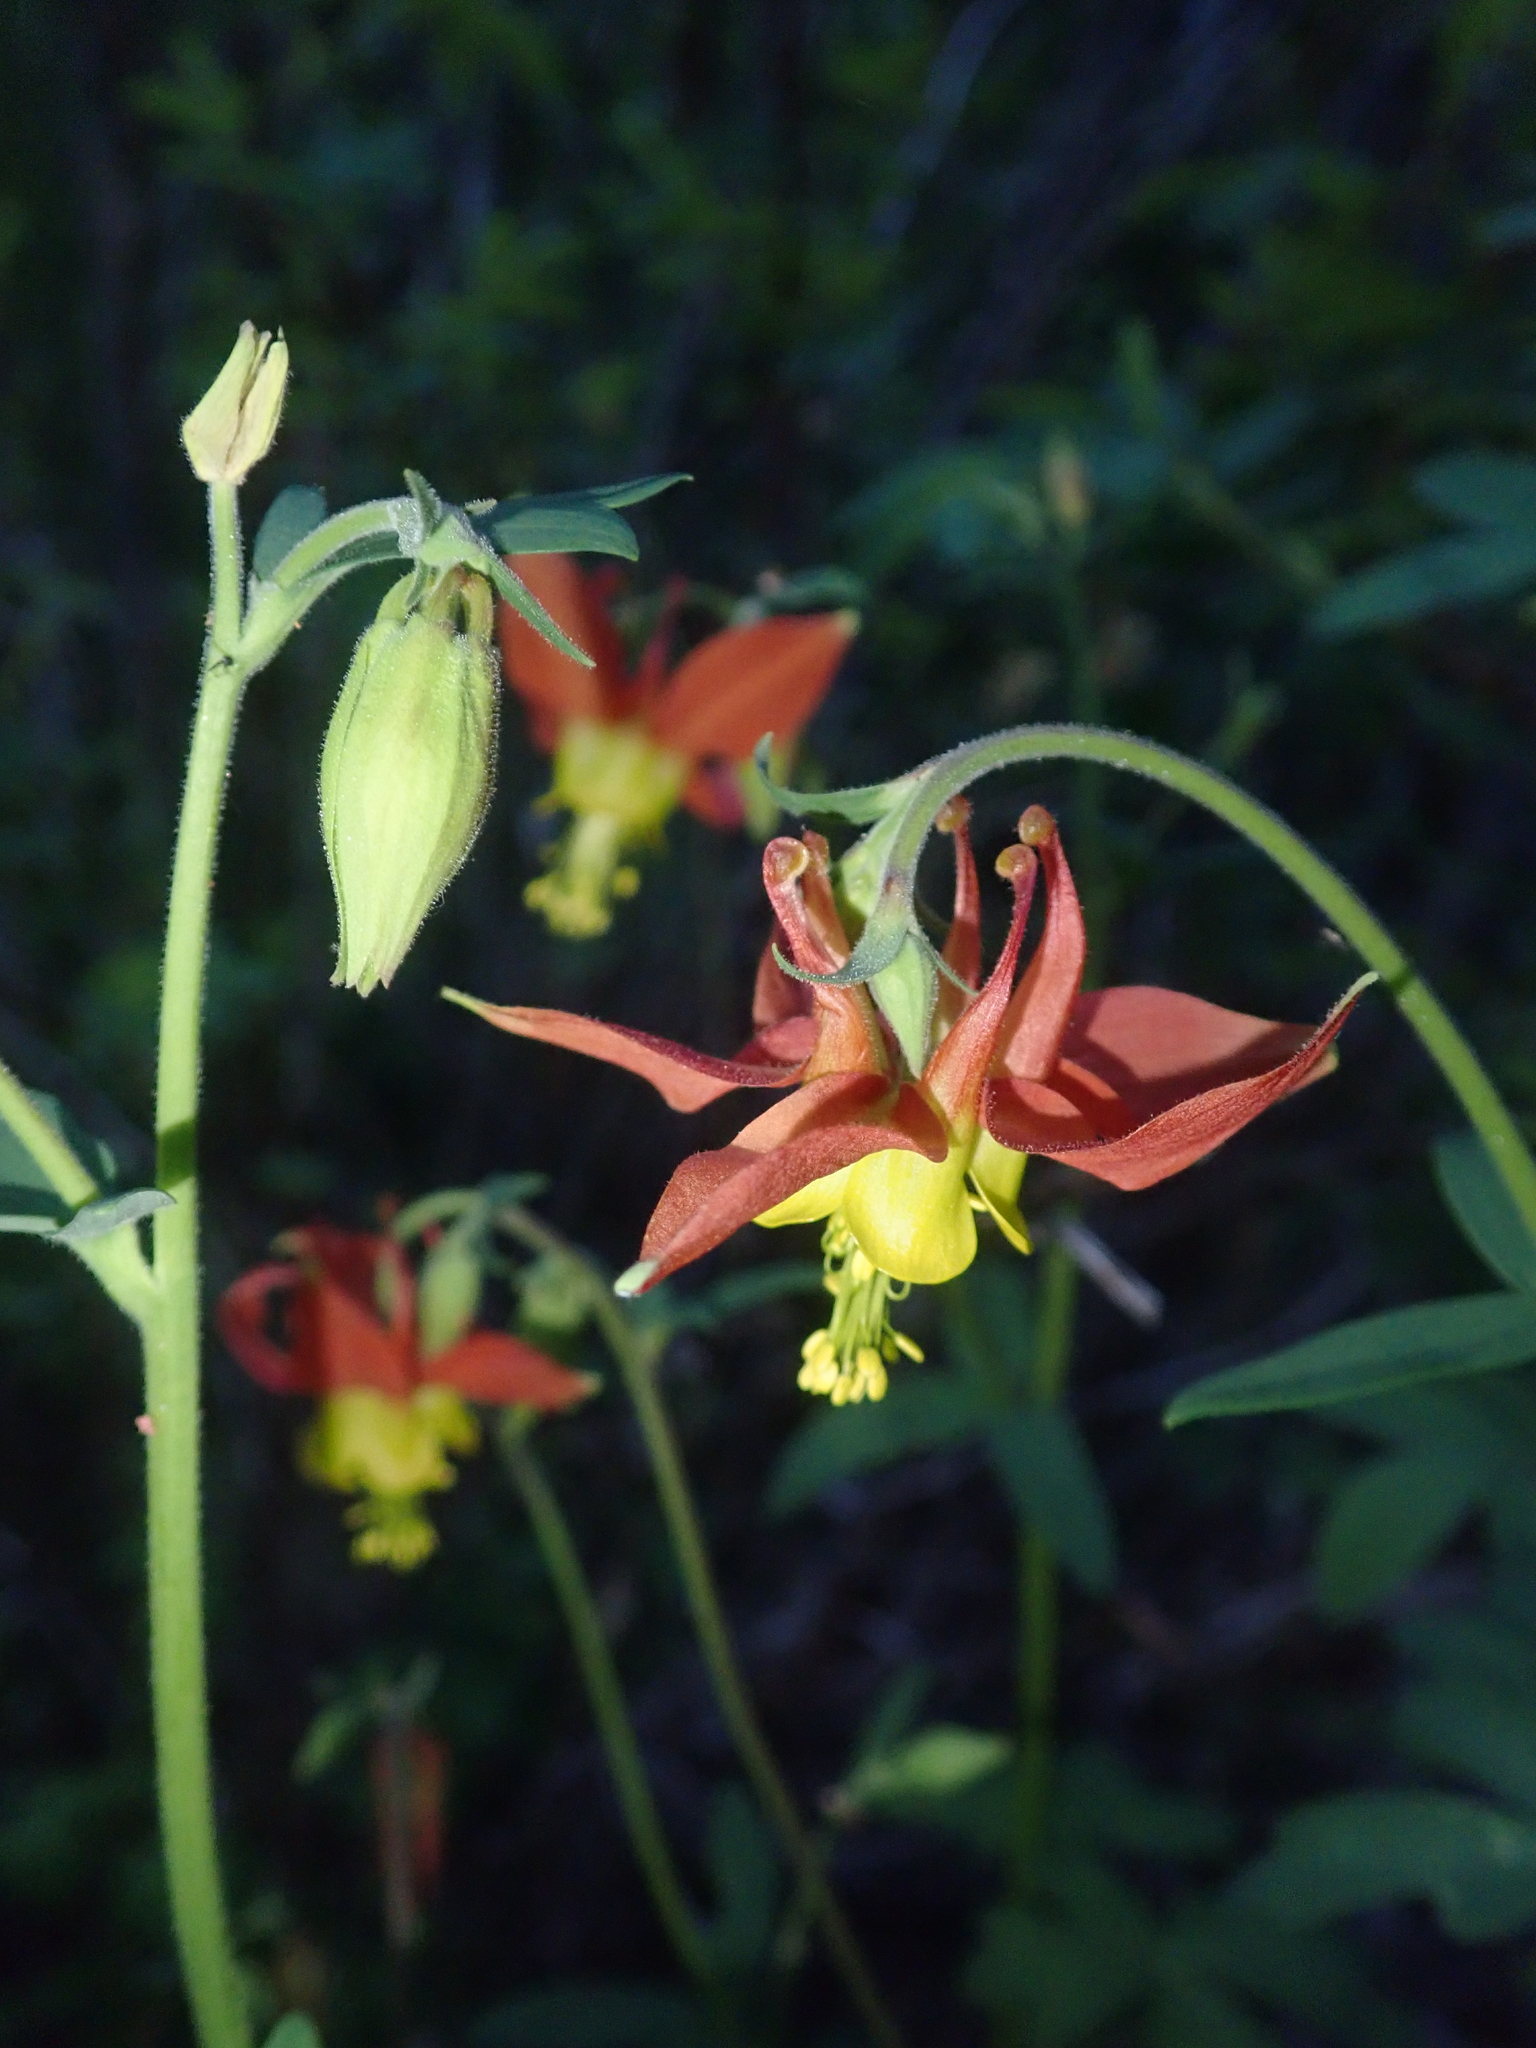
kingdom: Plantae
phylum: Tracheophyta
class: Magnoliopsida
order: Ranunculales
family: Ranunculaceae
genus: Aquilegia
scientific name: Aquilegia formosa
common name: Sitka columbine
